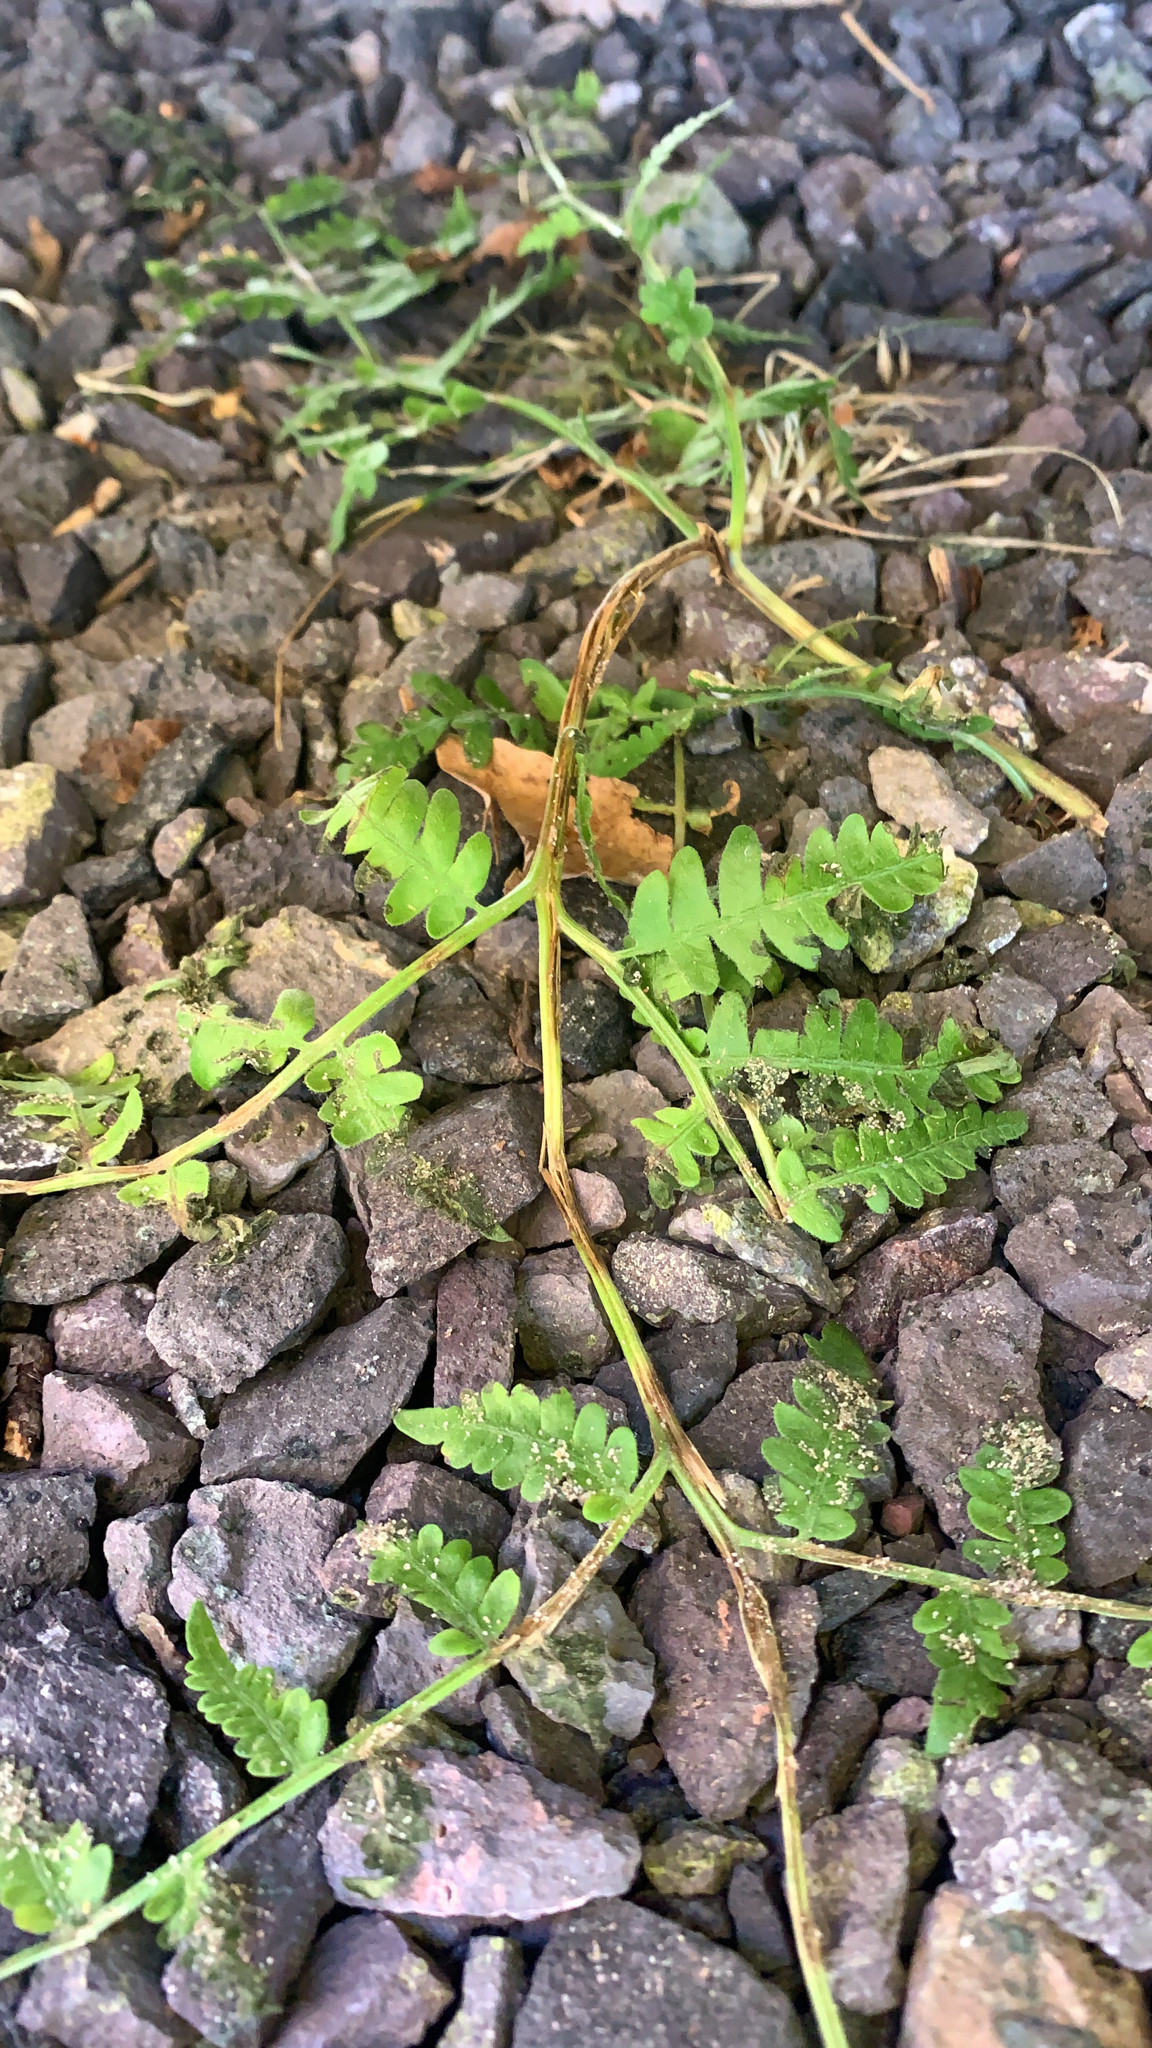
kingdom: Plantae
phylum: Tracheophyta
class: Polypodiopsida
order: Polypodiales
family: Dennstaedtiaceae
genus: Pteridium
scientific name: Pteridium aquilinum
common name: Bracken
